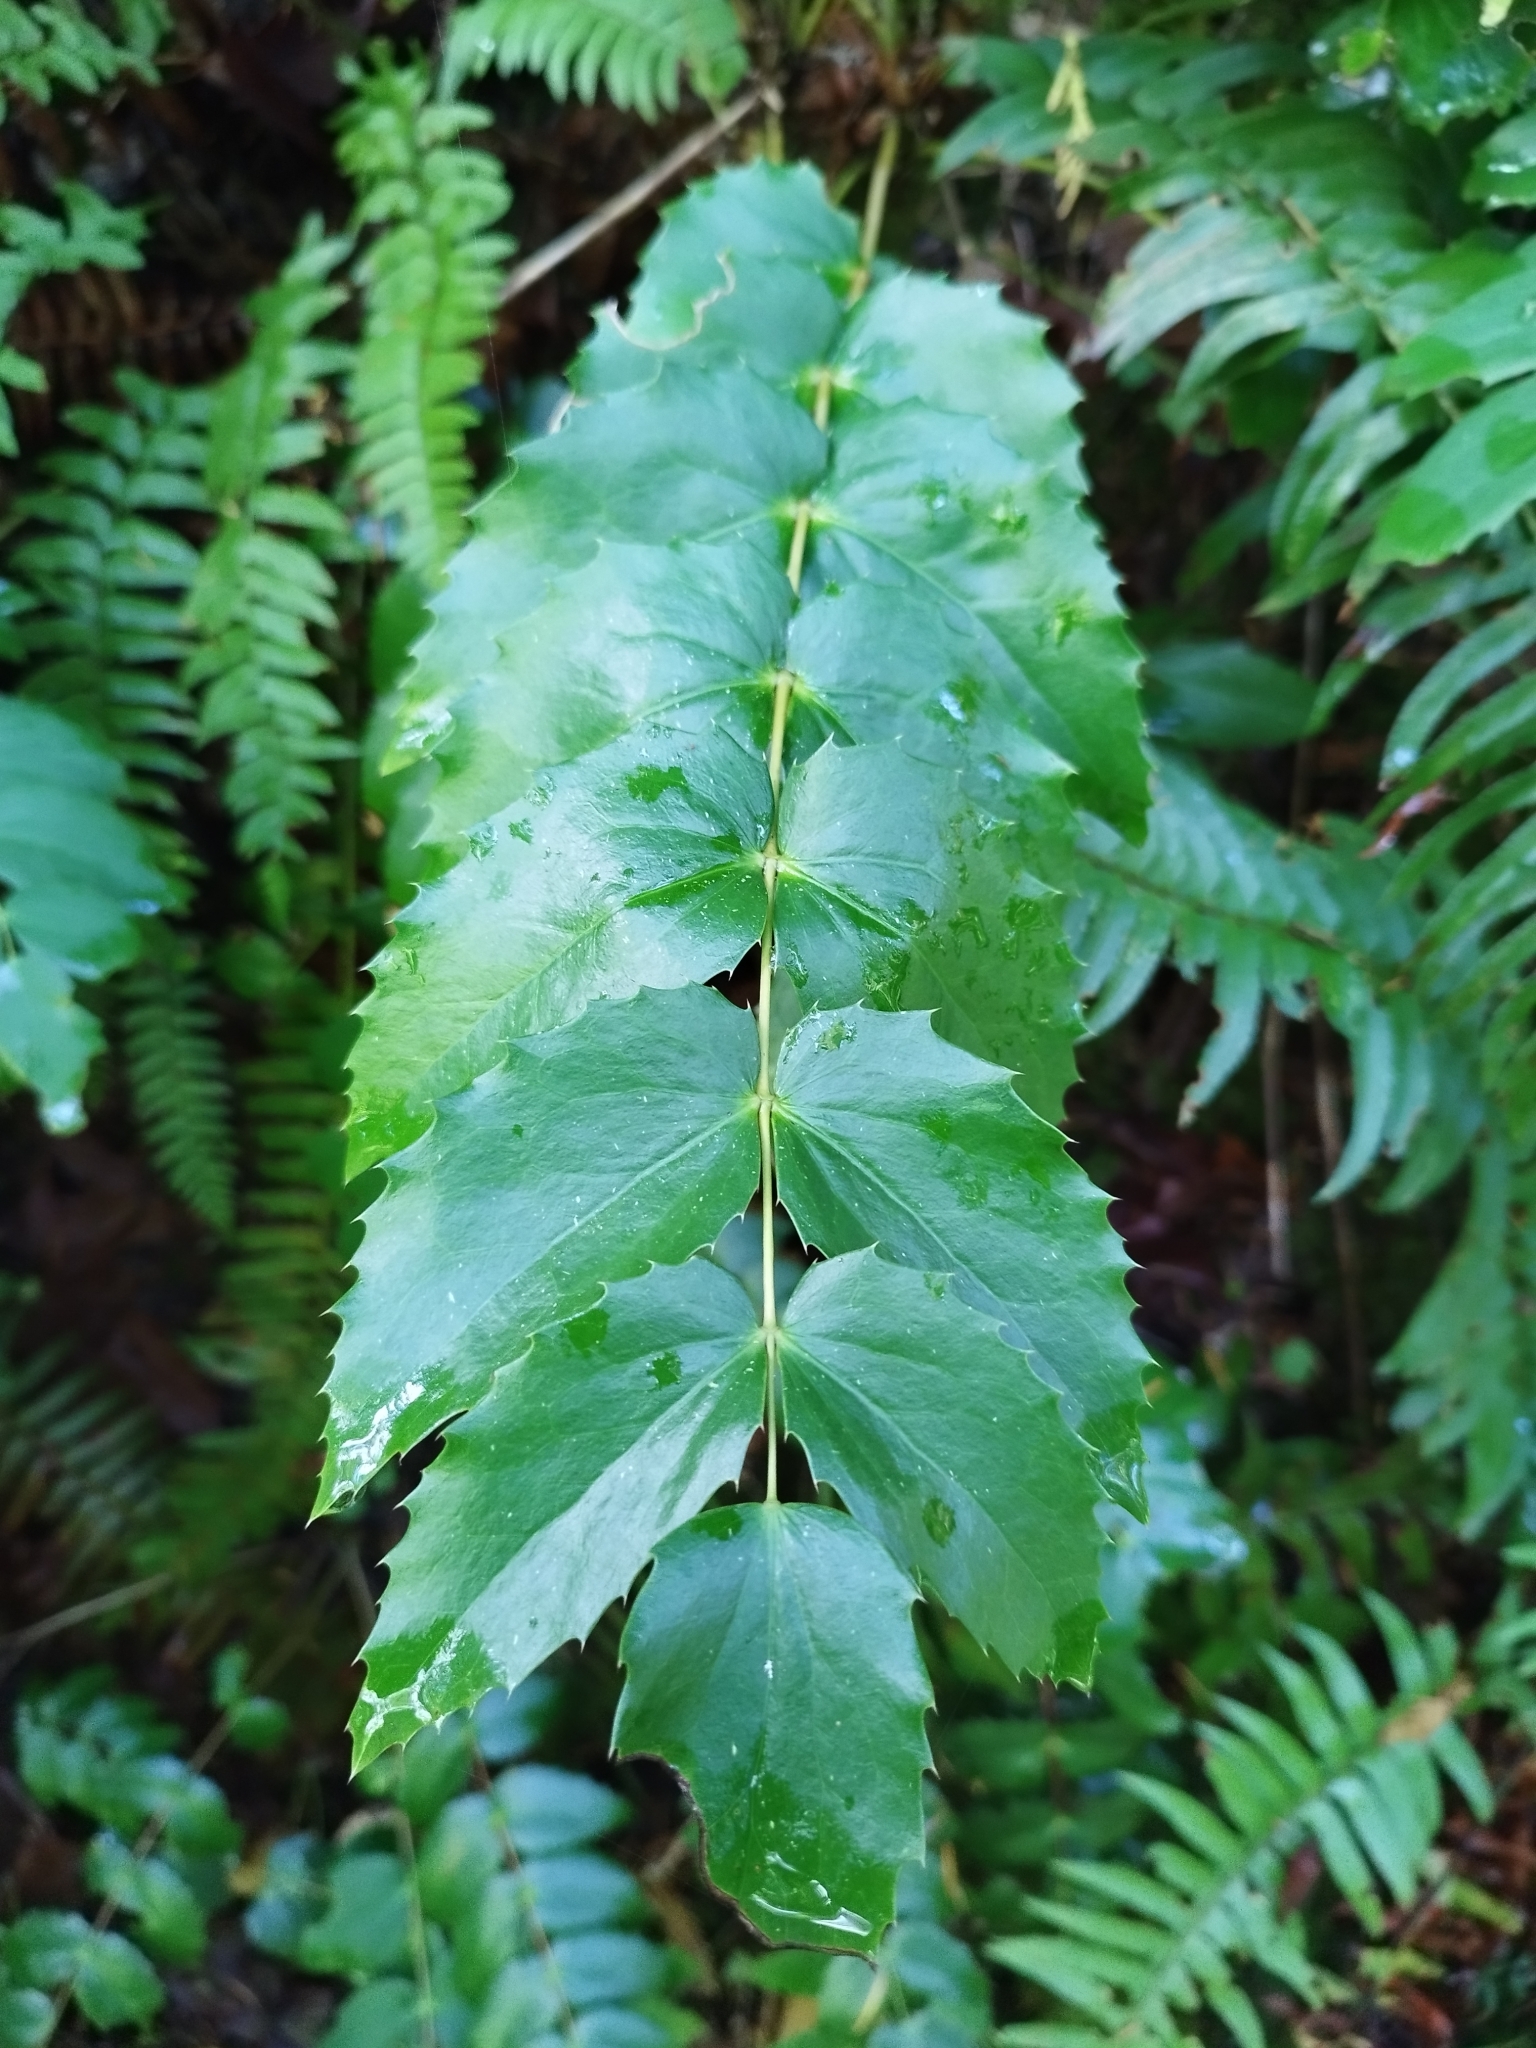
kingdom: Plantae
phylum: Tracheophyta
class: Magnoliopsida
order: Ranunculales
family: Berberidaceae
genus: Mahonia
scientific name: Mahonia nervosa
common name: Cascade oregon-grape
